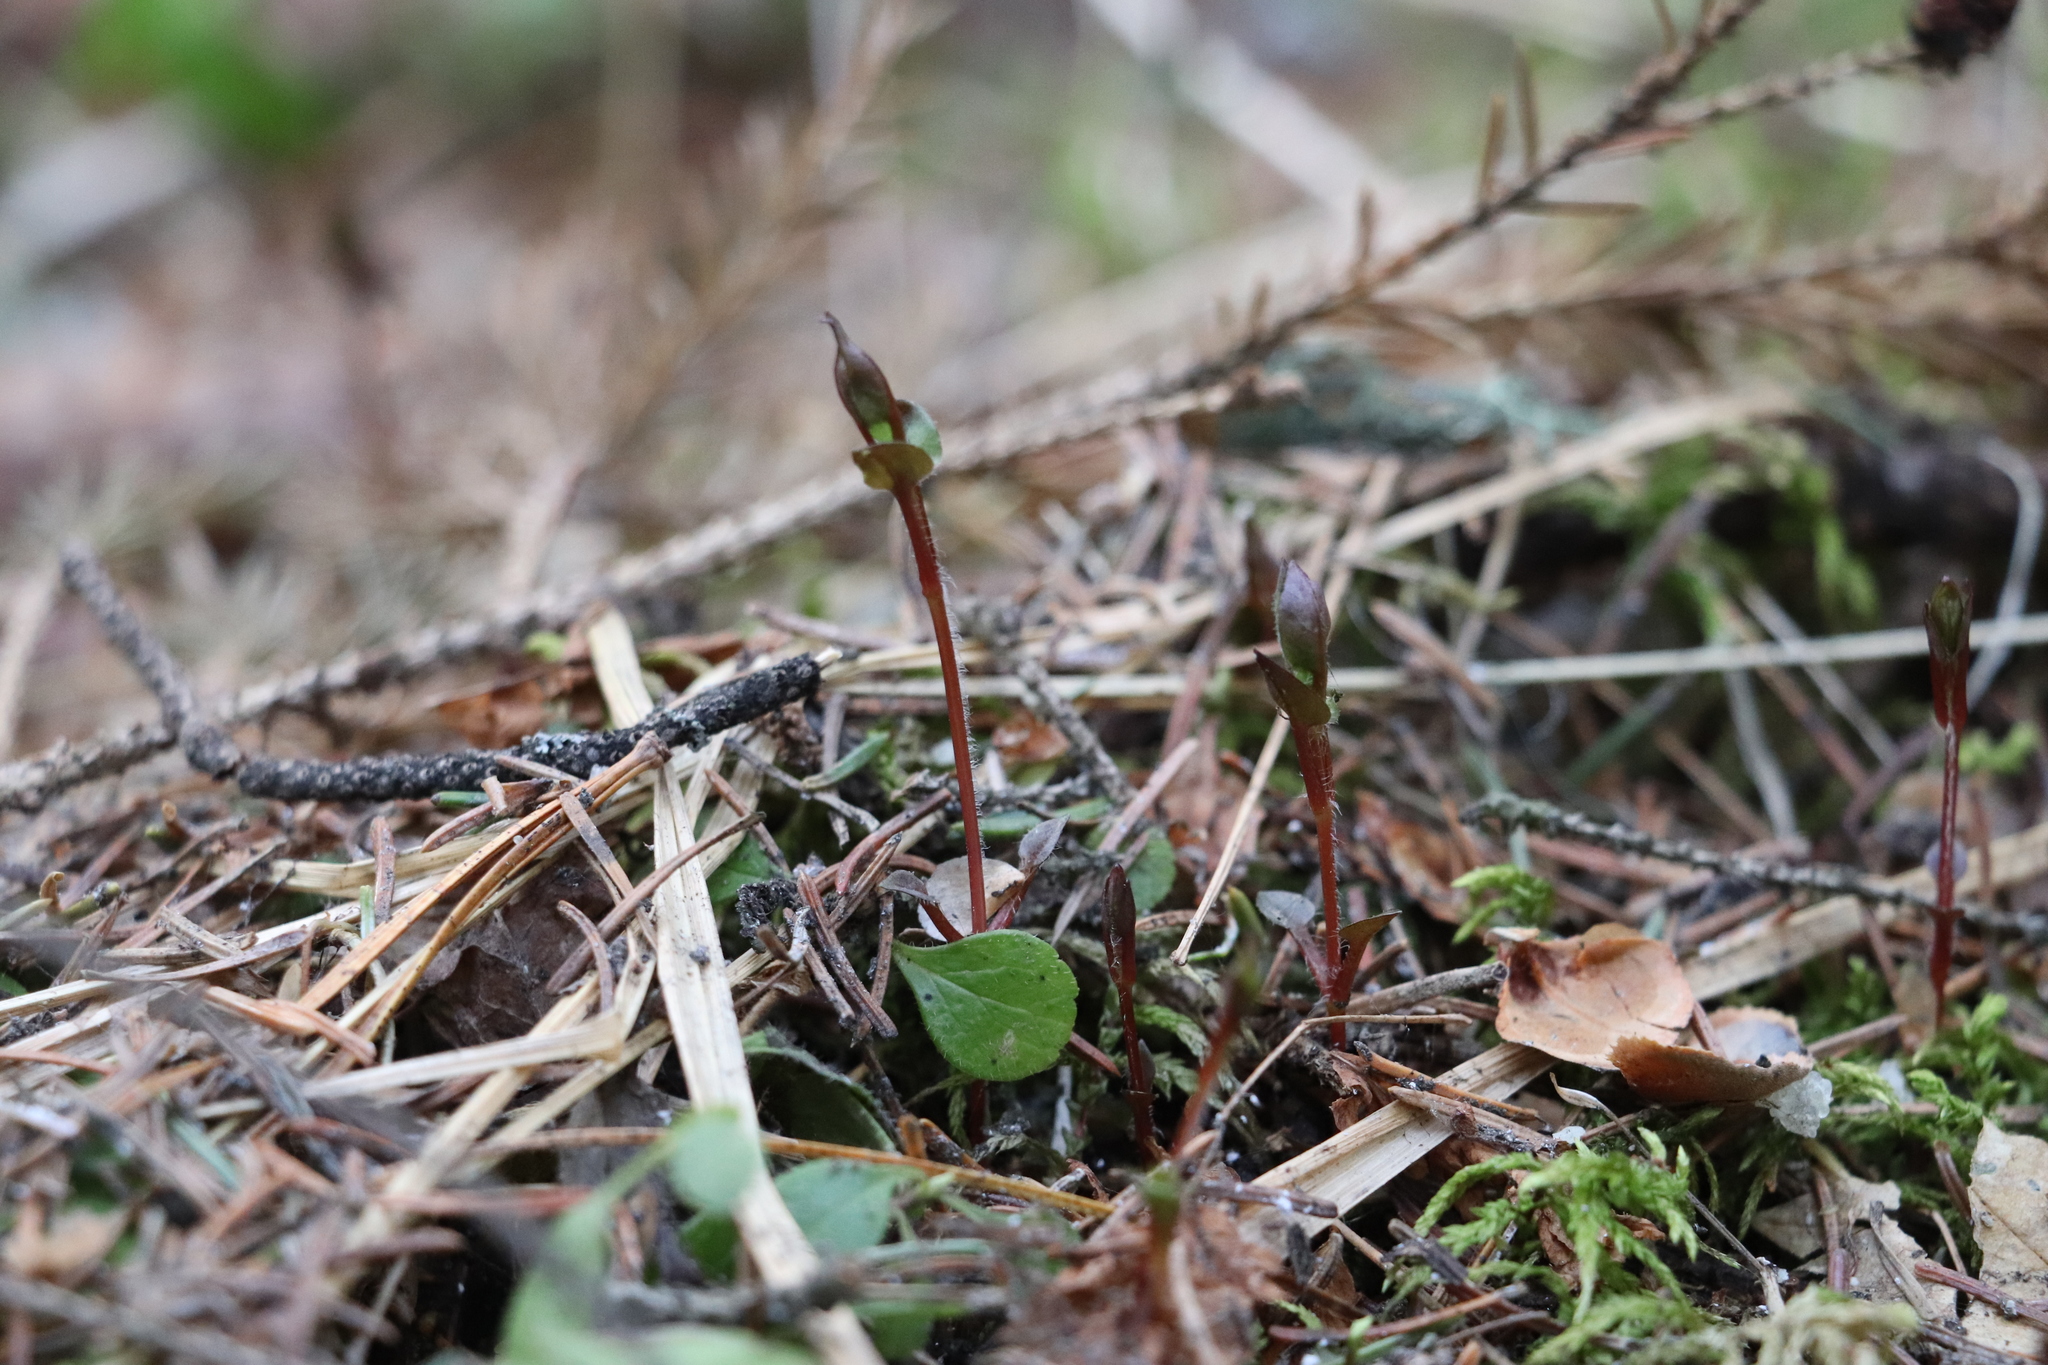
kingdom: Plantae
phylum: Tracheophyta
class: Magnoliopsida
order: Caryophyllales
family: Caryophyllaceae
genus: Stellaria
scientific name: Stellaria bungeana
